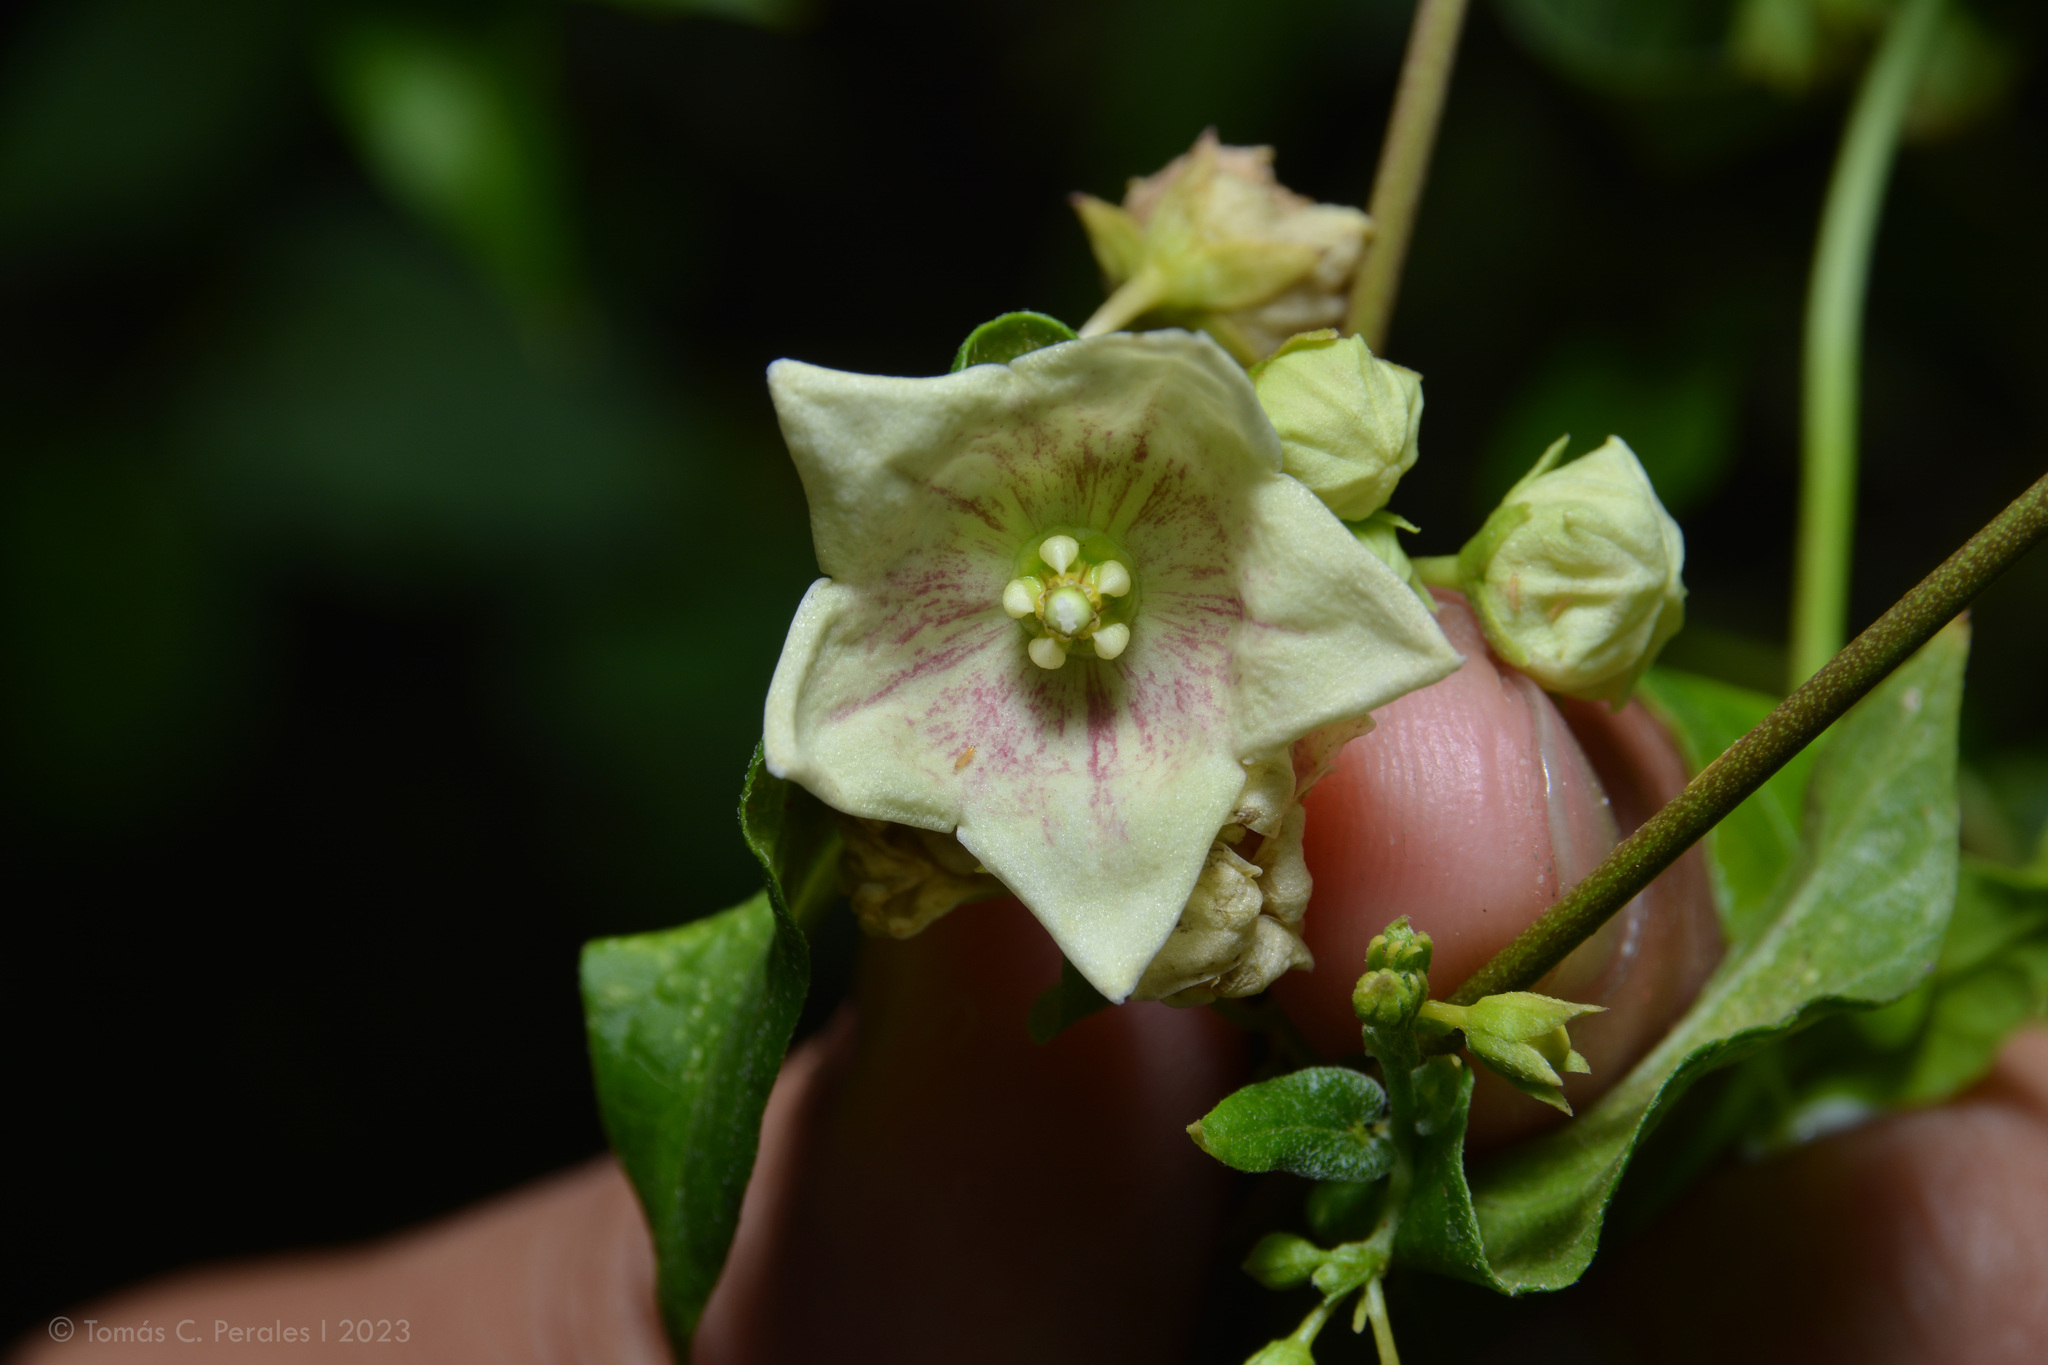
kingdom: Plantae
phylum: Tracheophyta
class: Magnoliopsida
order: Gentianales
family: Apocynaceae
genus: Philibertia
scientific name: Philibertia gilliesii
